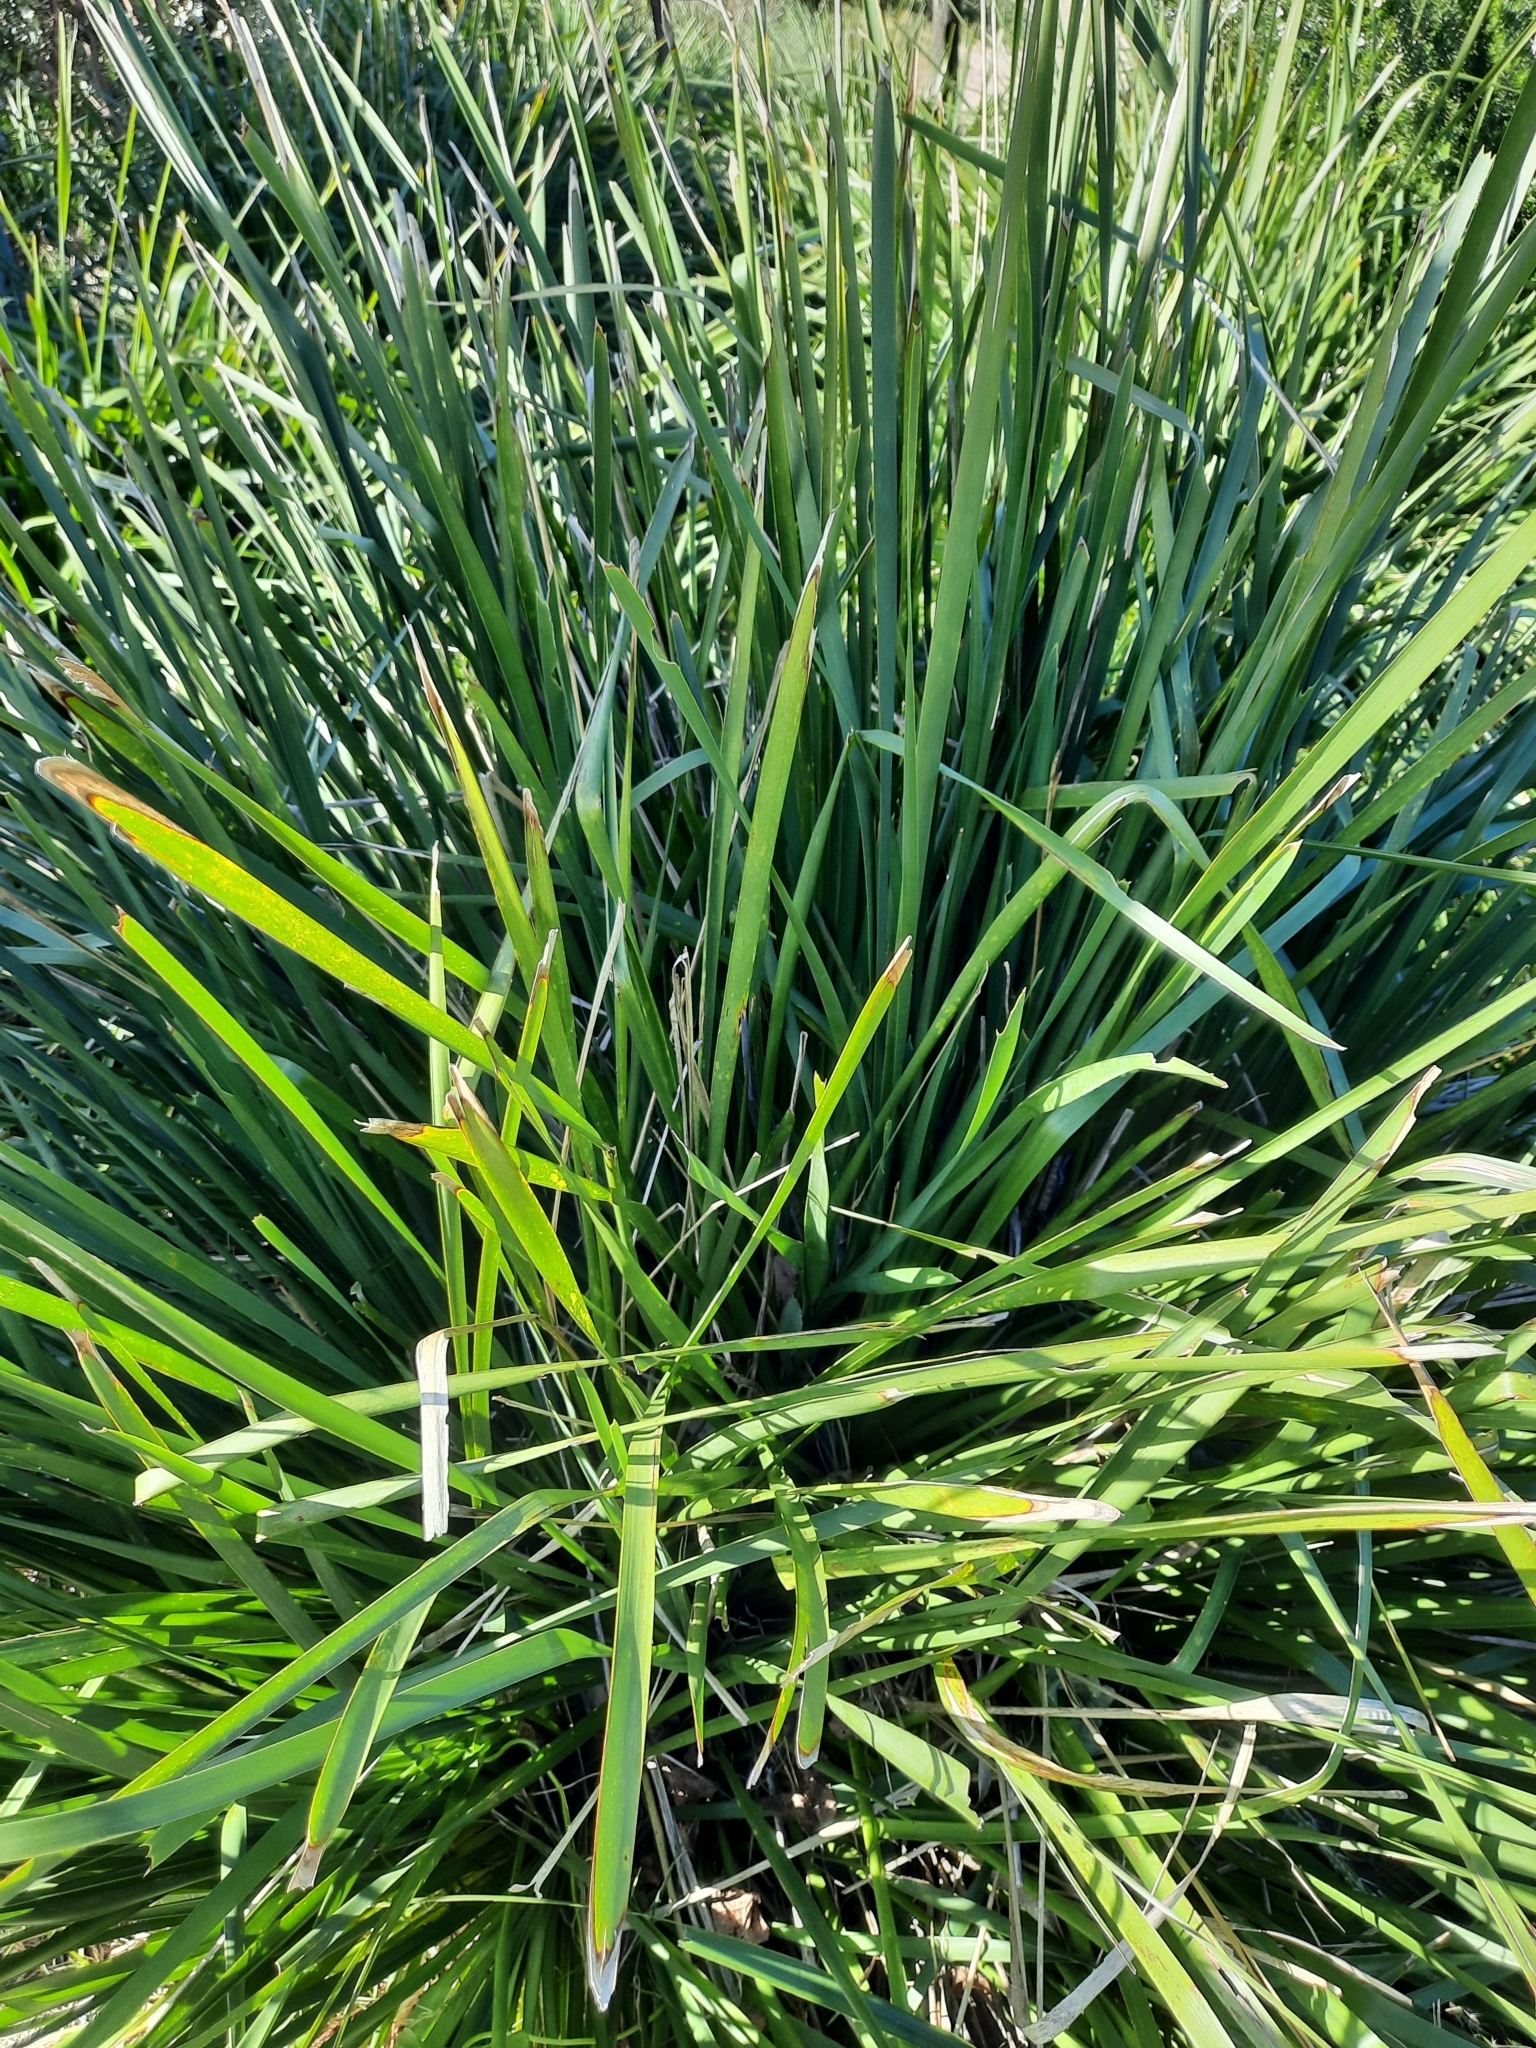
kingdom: Plantae
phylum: Tracheophyta
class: Liliopsida
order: Asparagales
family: Asparagaceae
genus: Lomandra
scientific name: Lomandra longifolia
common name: Longleaf mat-rush
